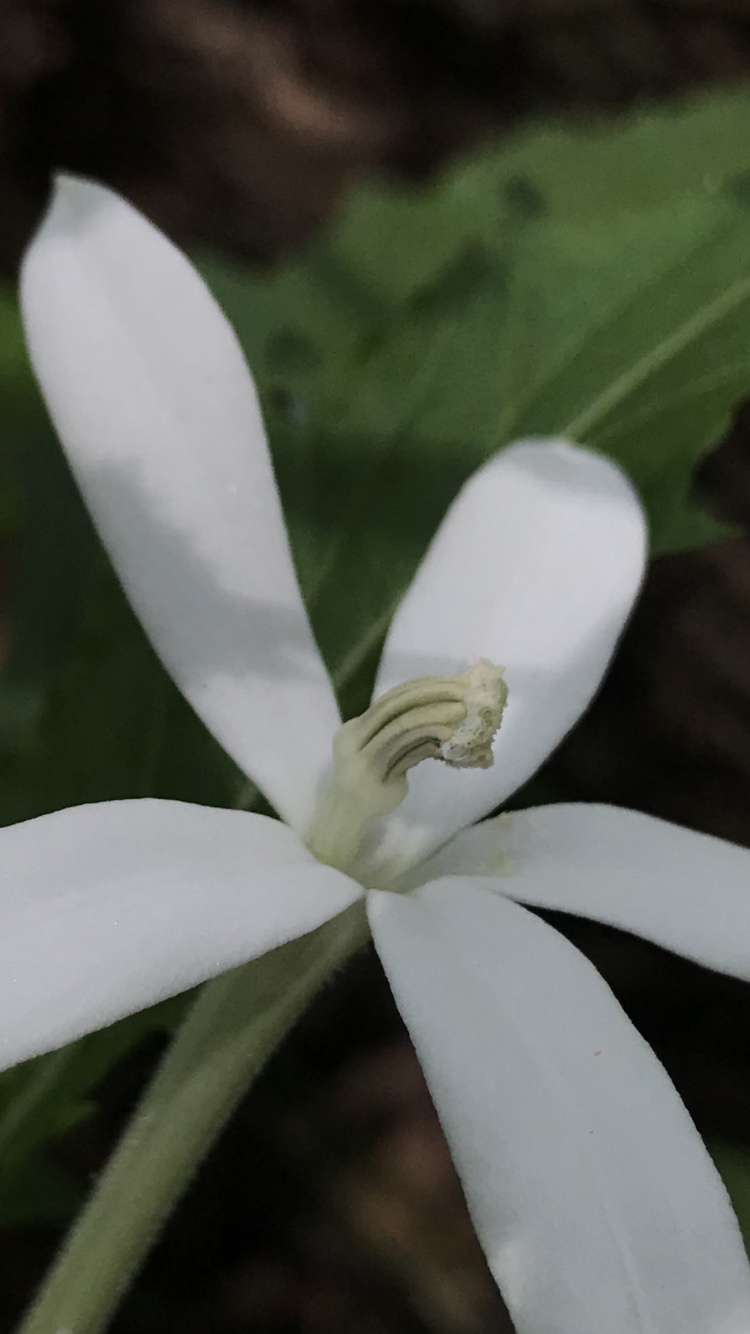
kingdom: Plantae
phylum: Tracheophyta
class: Magnoliopsida
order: Asterales
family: Campanulaceae
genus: Hippobroma
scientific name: Hippobroma longiflora
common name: Madamfate
